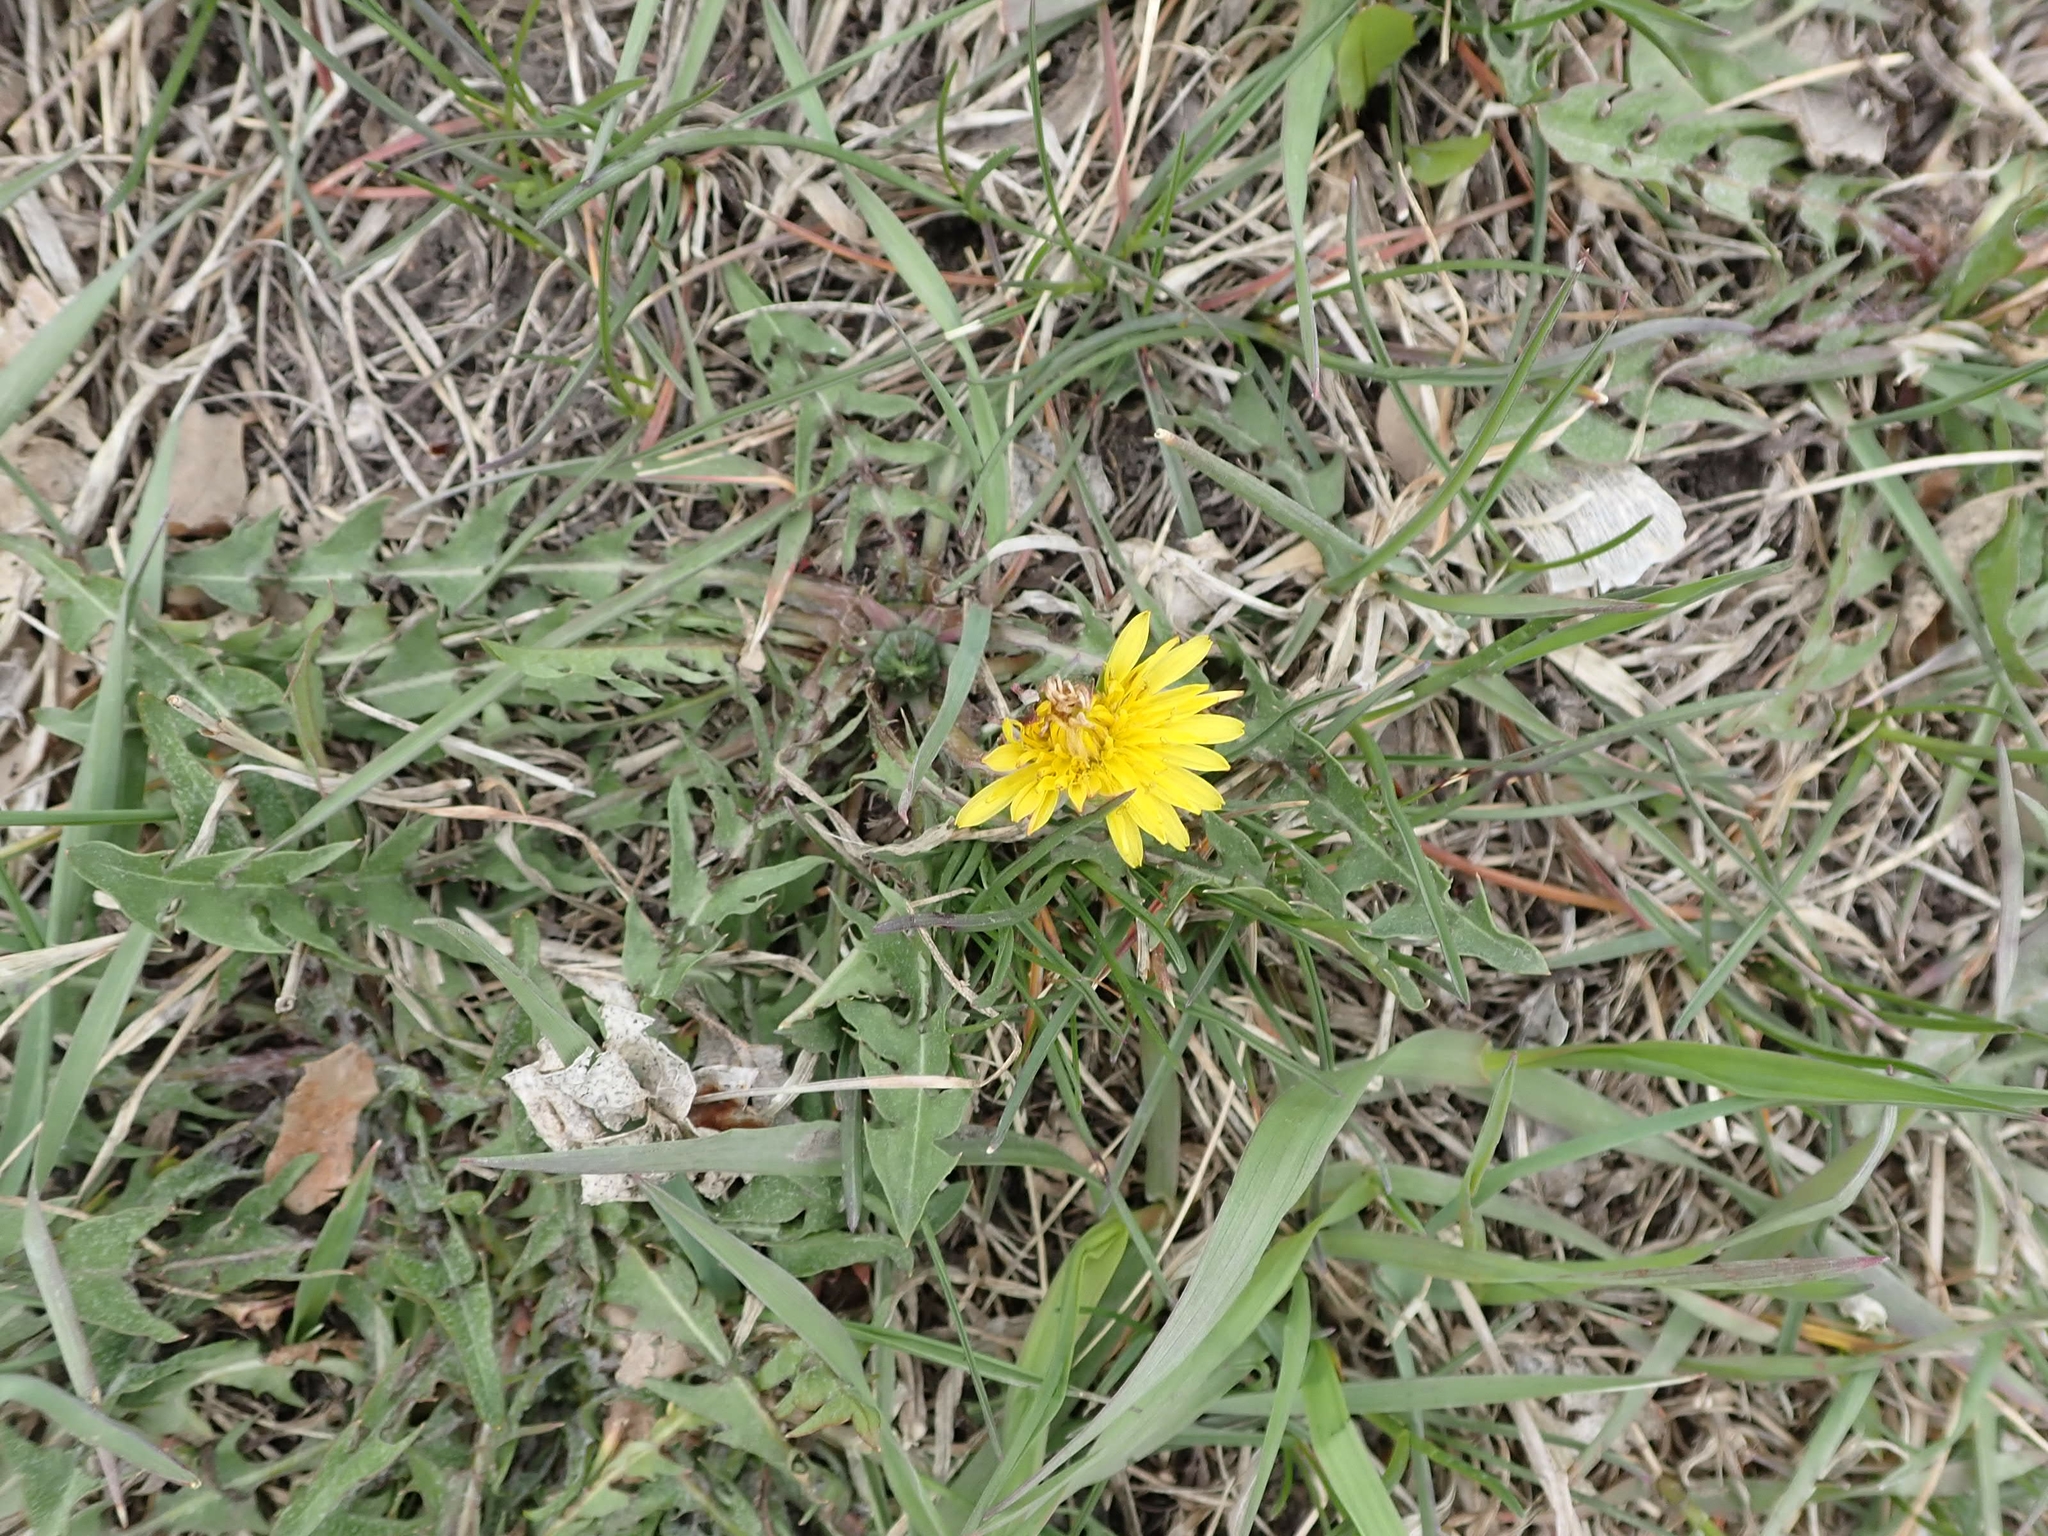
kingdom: Plantae
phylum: Tracheophyta
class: Magnoliopsida
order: Asterales
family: Asteraceae
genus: Taraxacum
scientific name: Taraxacum officinale
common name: Common dandelion
